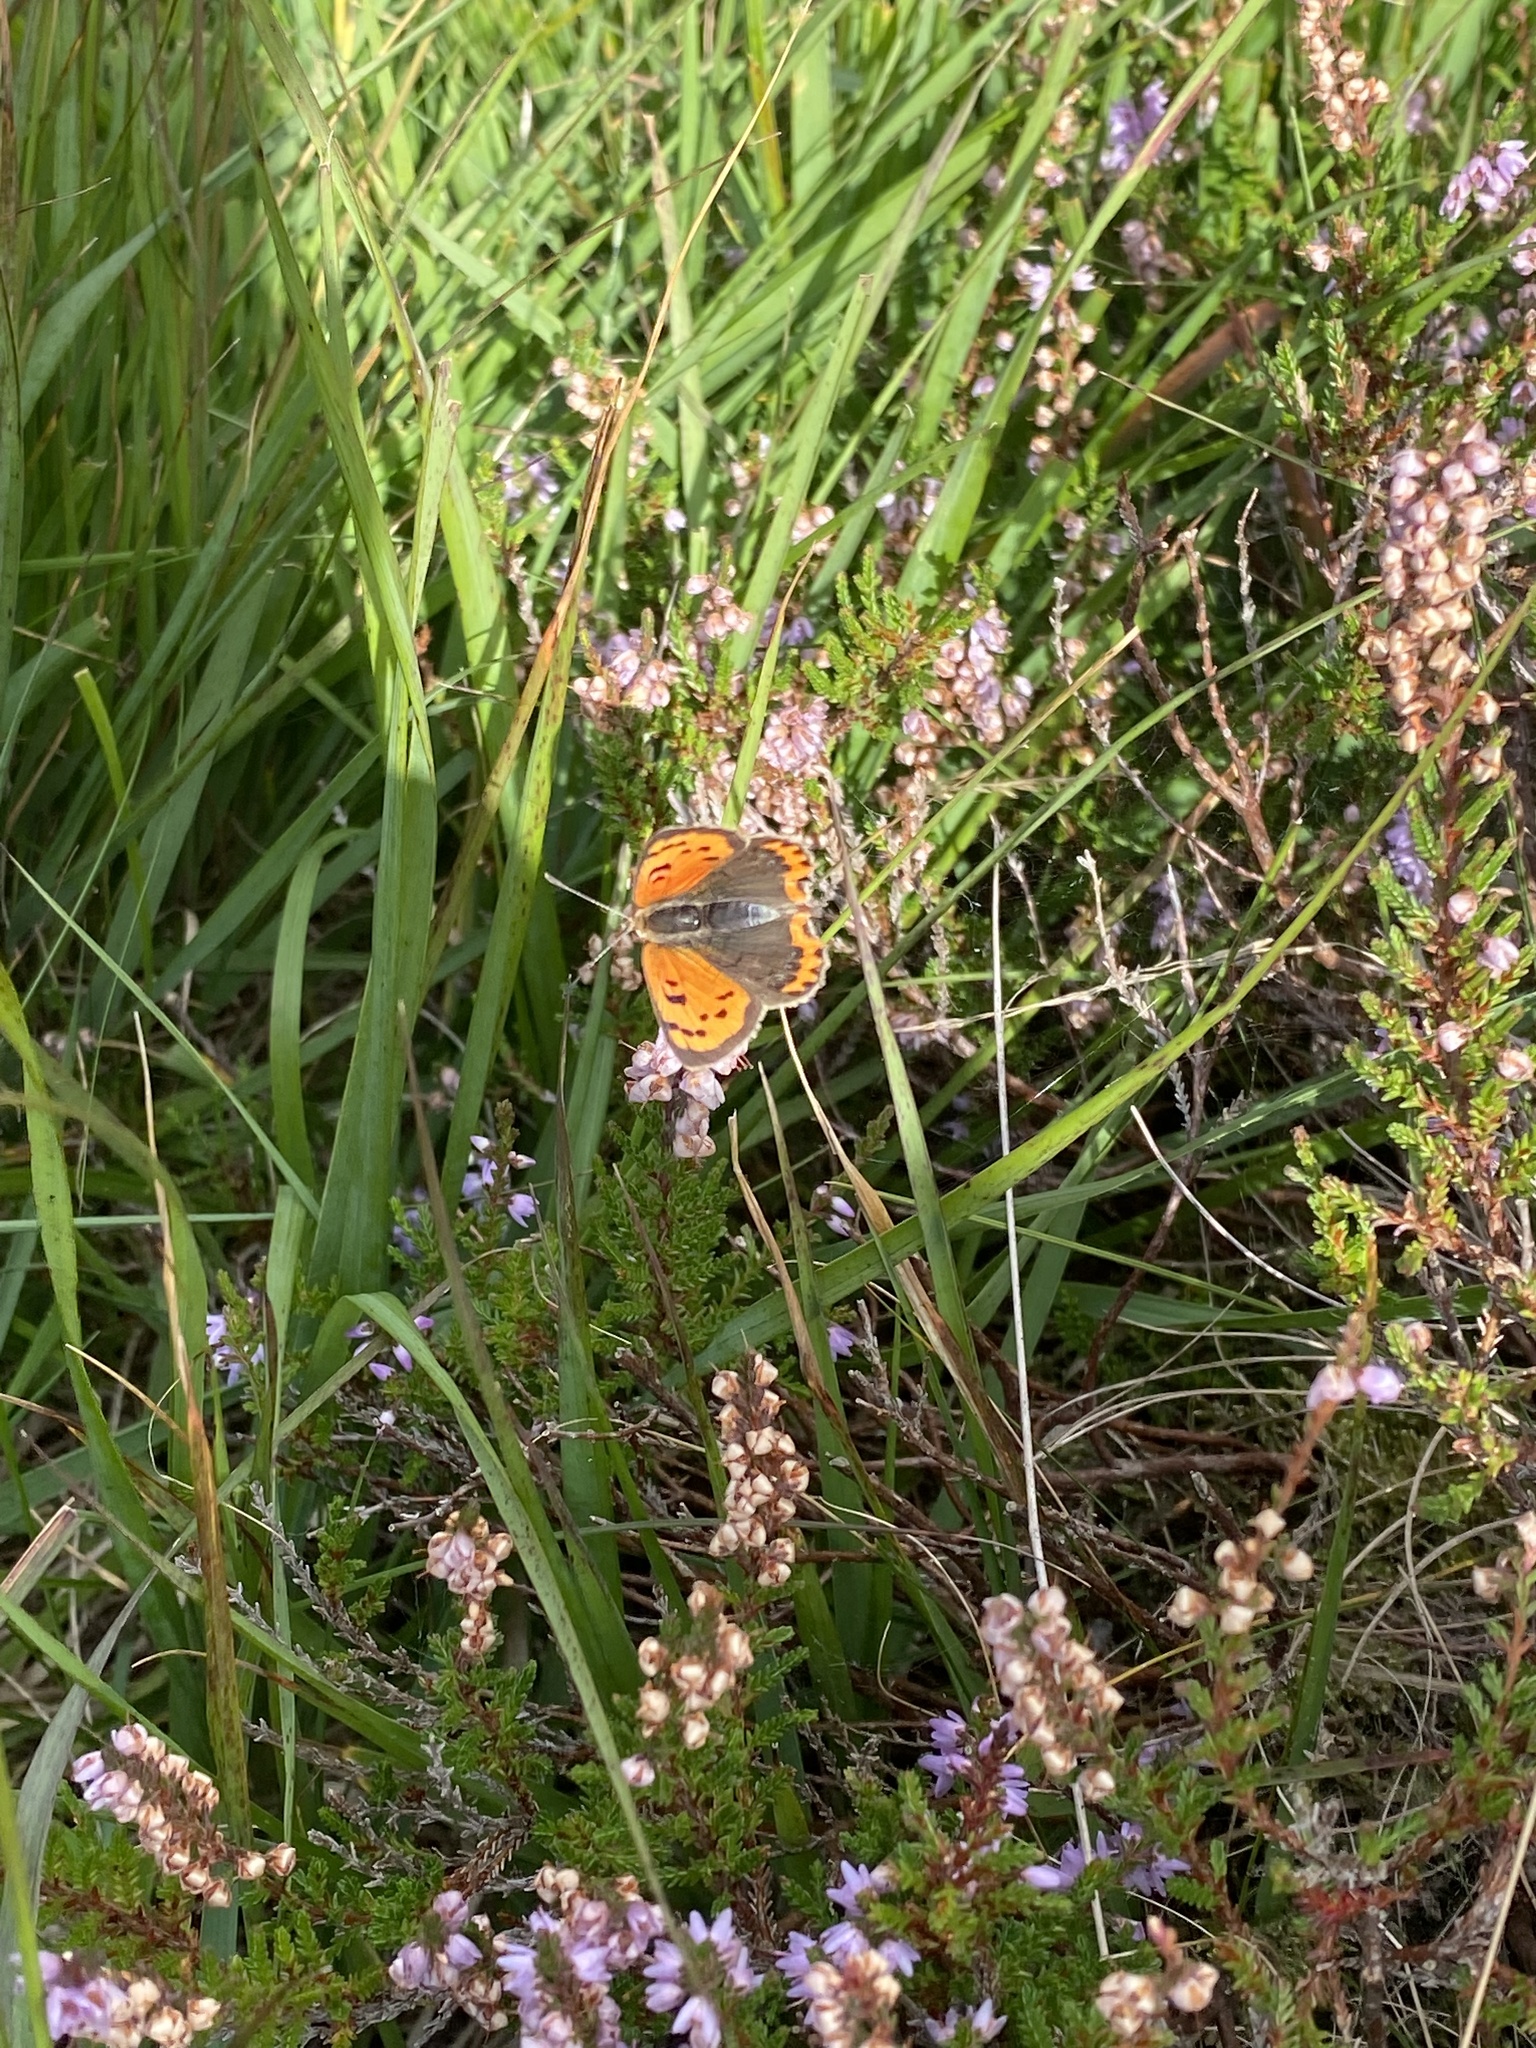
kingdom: Animalia
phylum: Arthropoda
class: Insecta
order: Lepidoptera
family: Lycaenidae
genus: Lycaena
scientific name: Lycaena phlaeas
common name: Small copper
